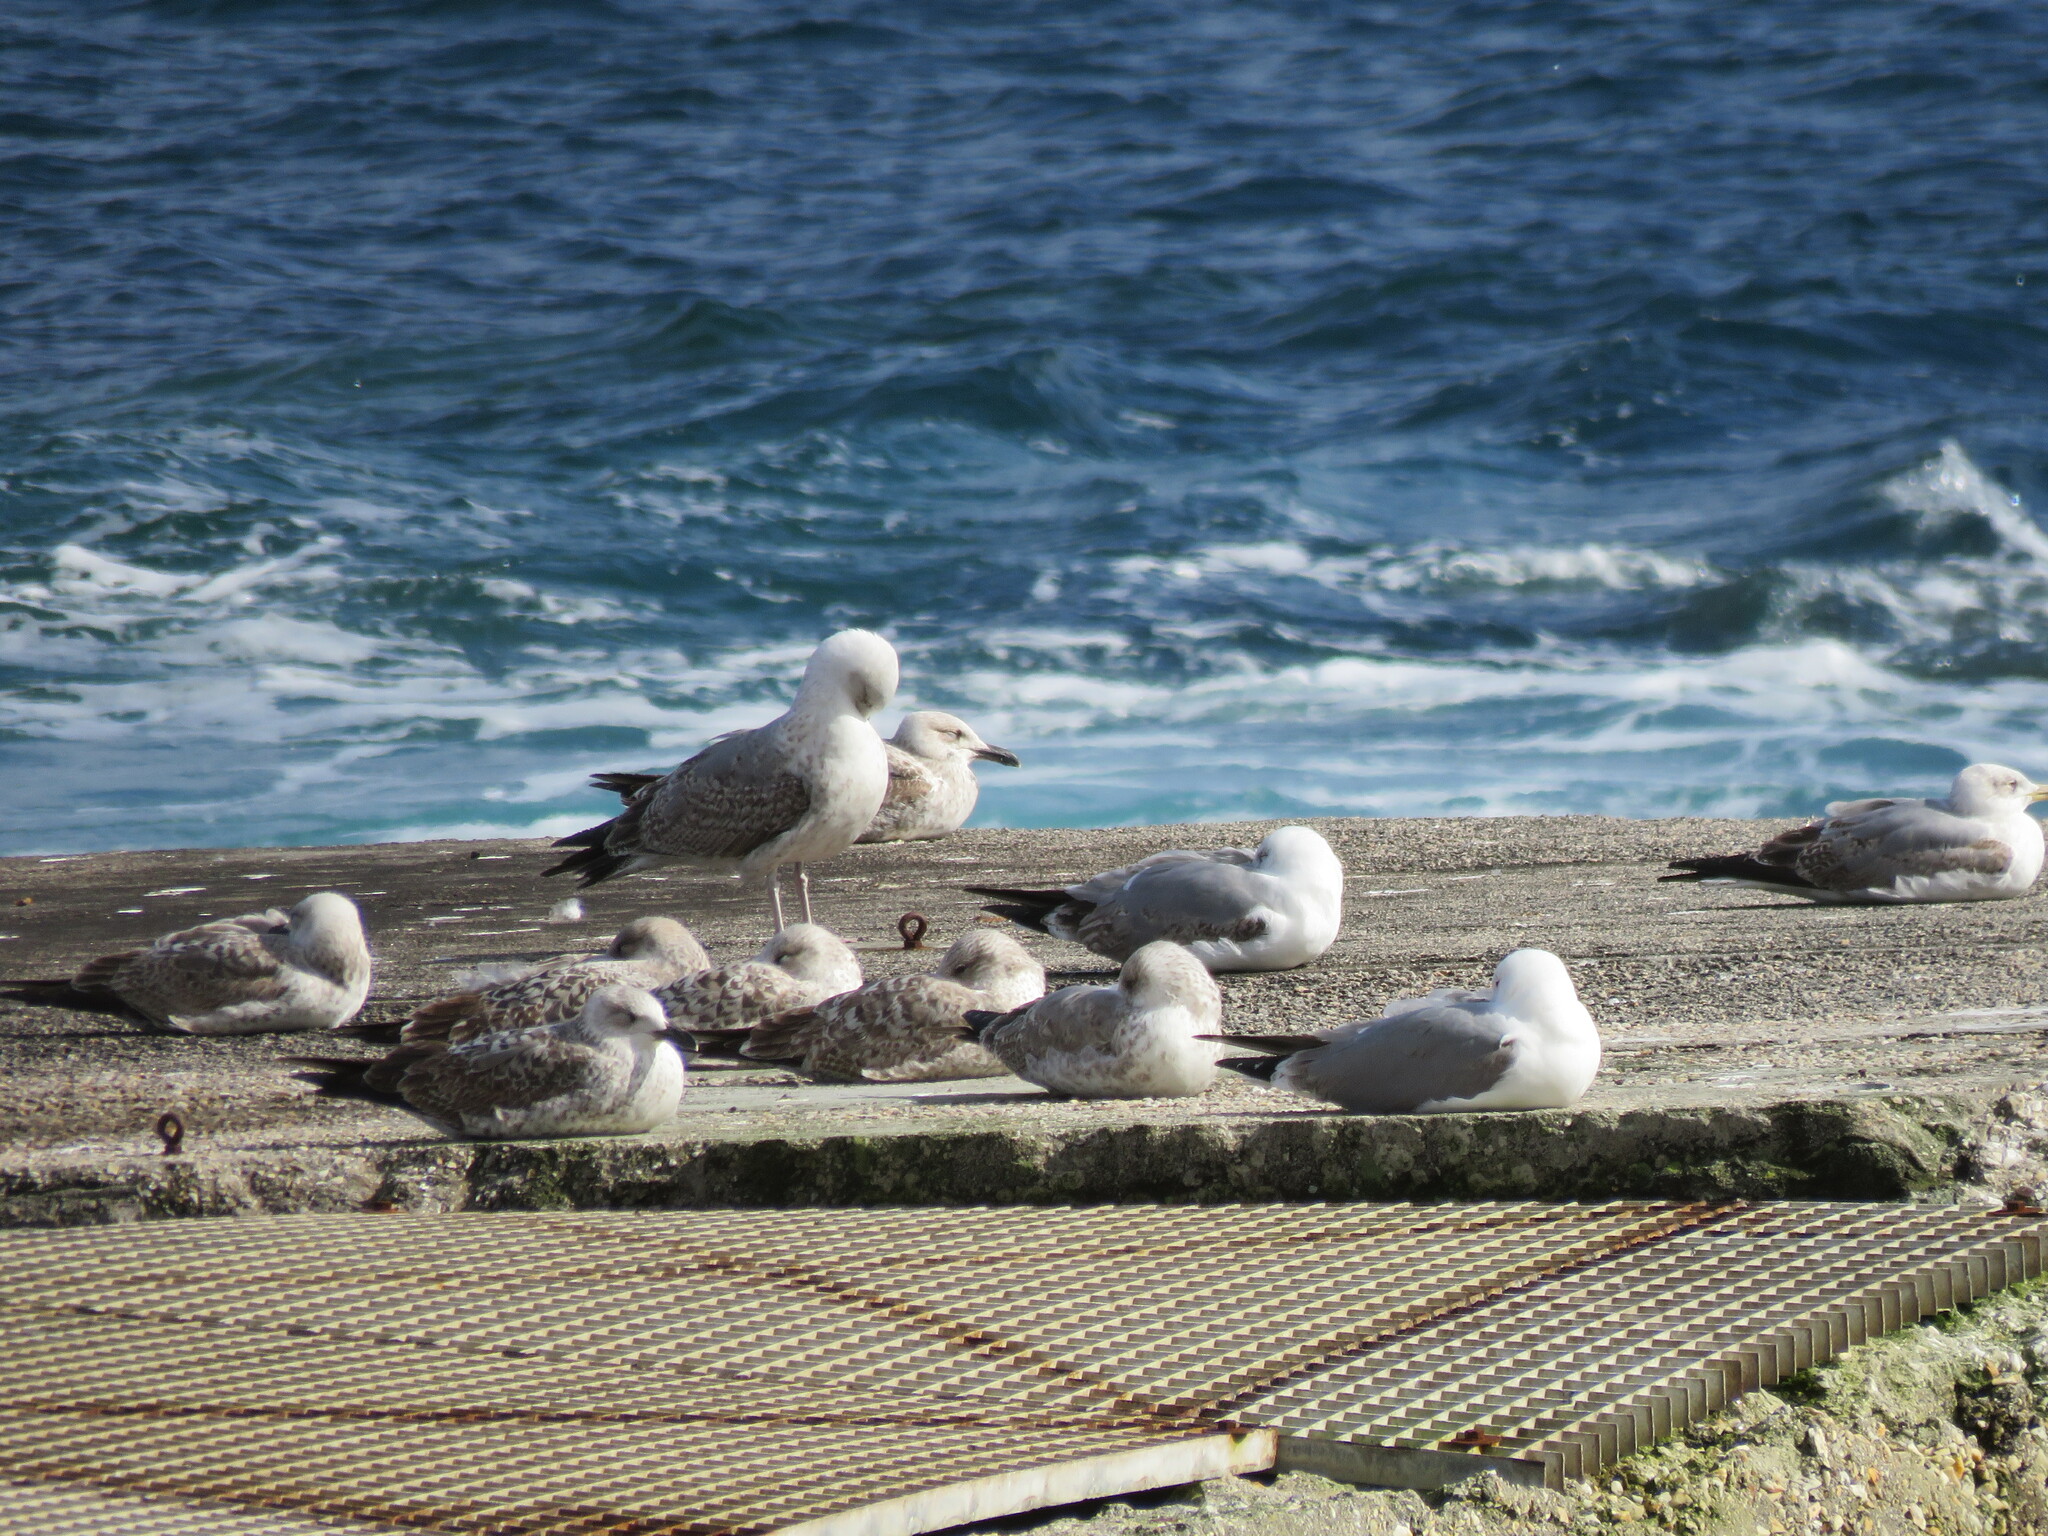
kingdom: Animalia
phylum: Chordata
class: Aves
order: Charadriiformes
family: Laridae
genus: Larus
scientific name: Larus michahellis
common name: Yellow-legged gull
